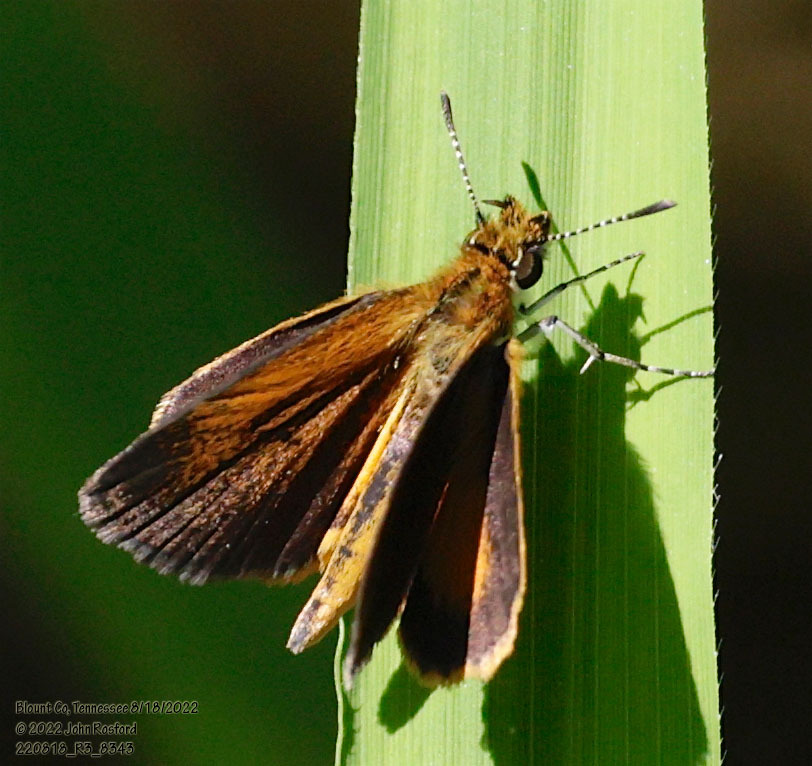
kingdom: Animalia
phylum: Arthropoda
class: Insecta
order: Lepidoptera
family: Hesperiidae
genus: Ancyloxypha
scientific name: Ancyloxypha numitor
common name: Least skipper
